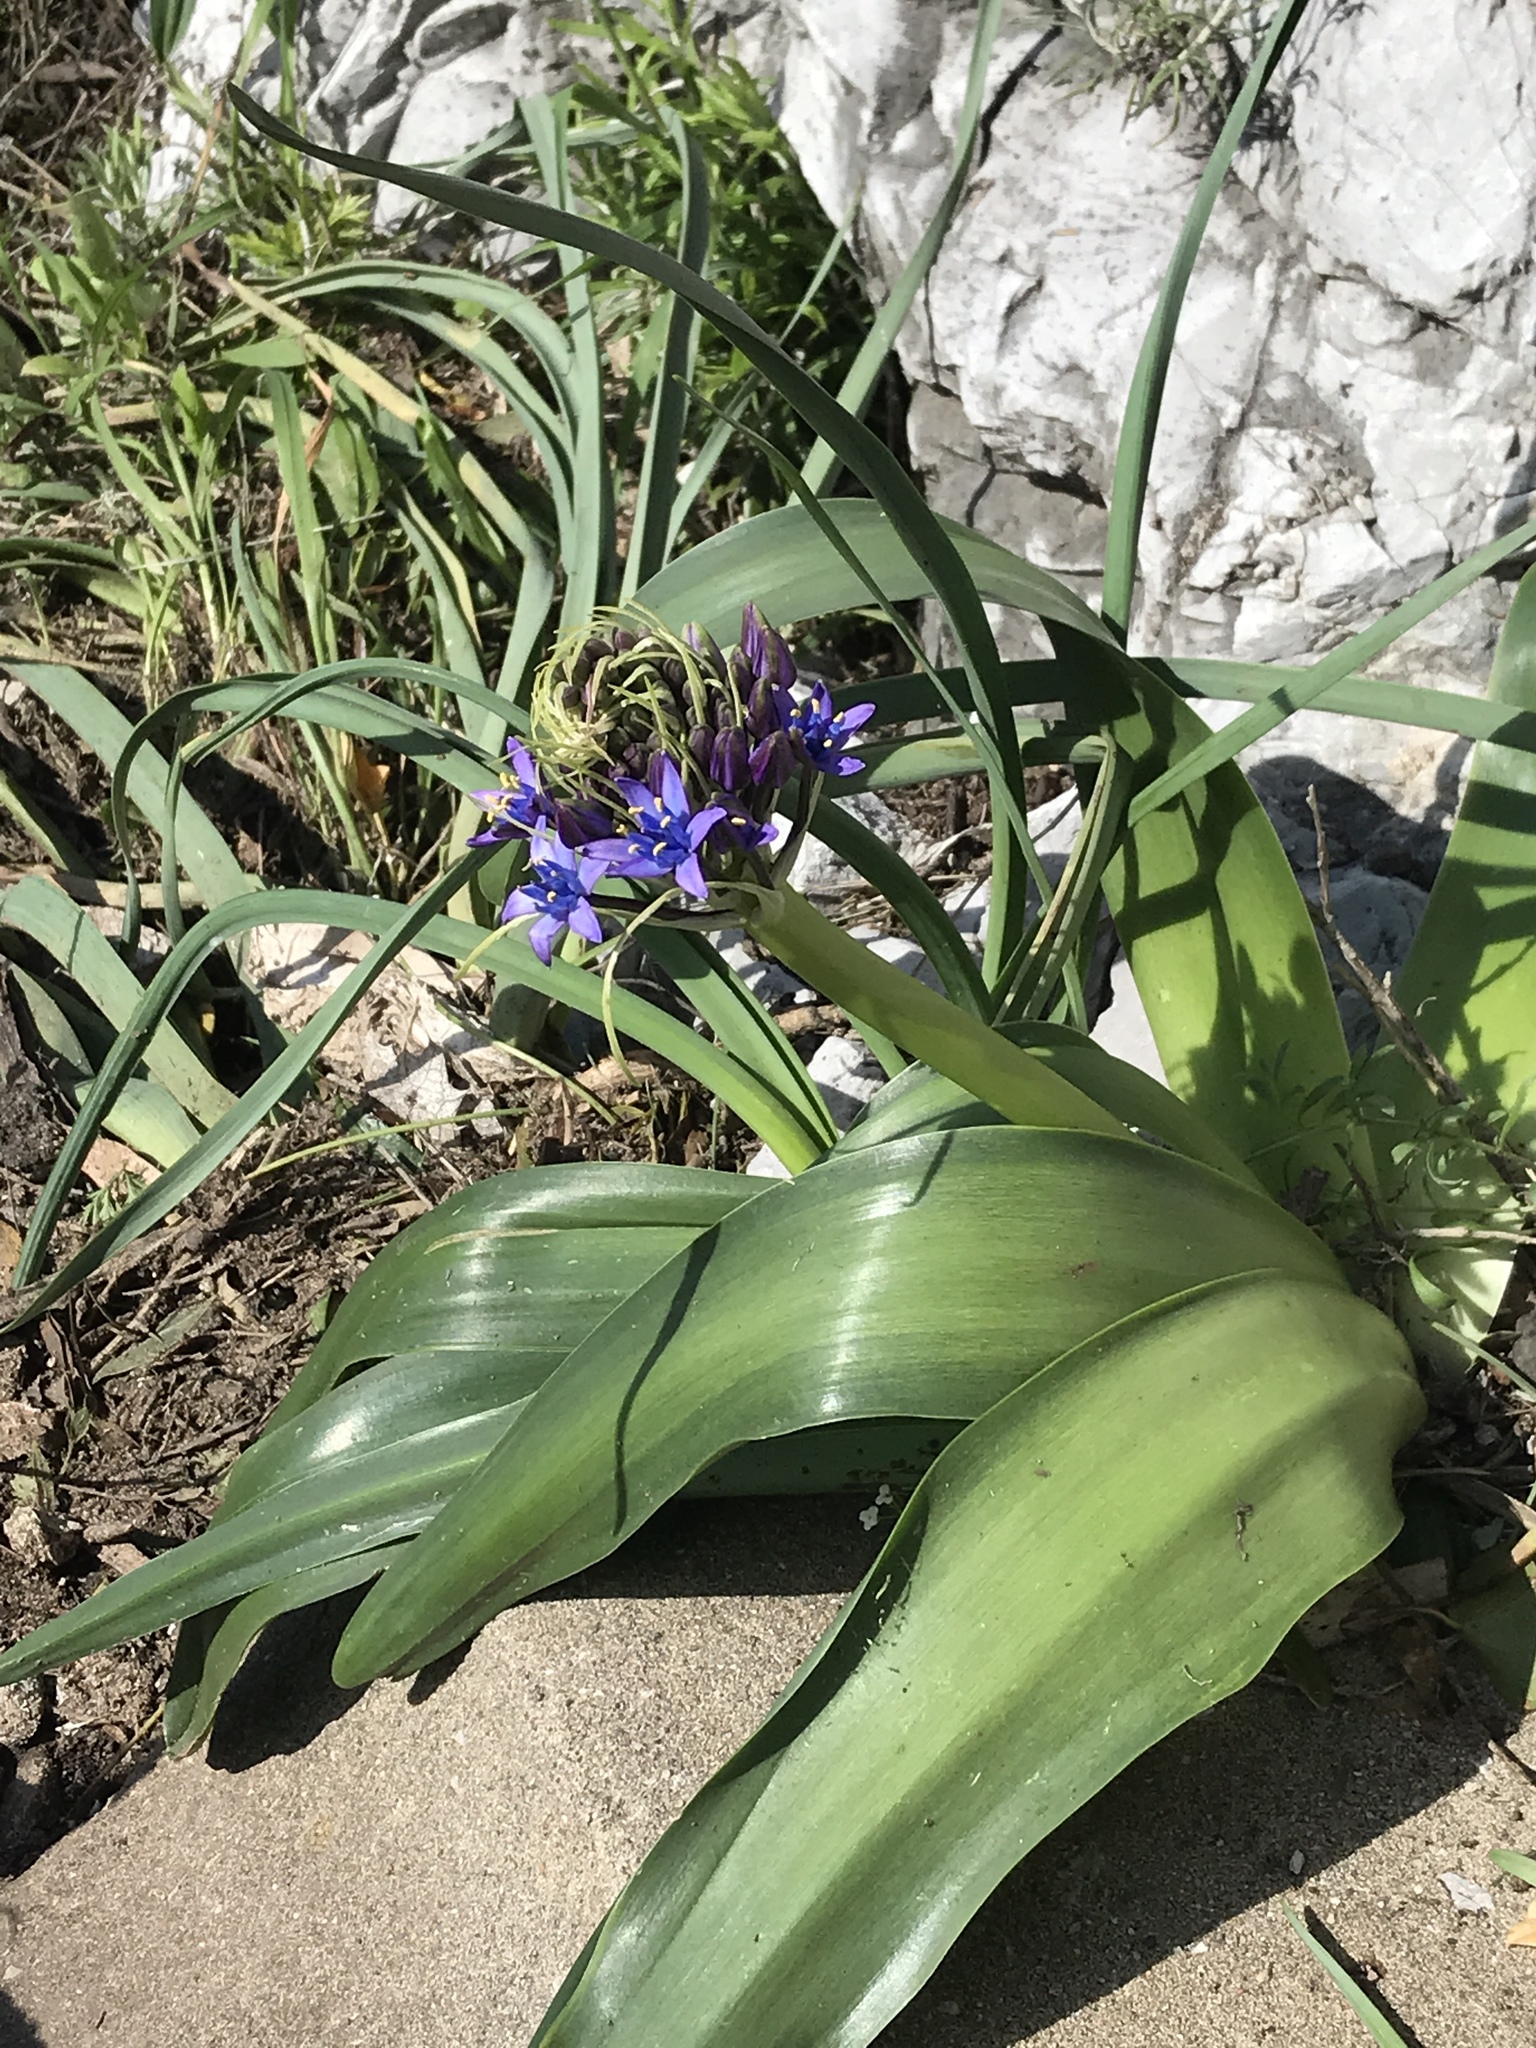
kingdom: Plantae
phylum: Tracheophyta
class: Liliopsida
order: Asparagales
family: Asparagaceae
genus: Scilla
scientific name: Scilla peruviana
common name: Portuguese squill
